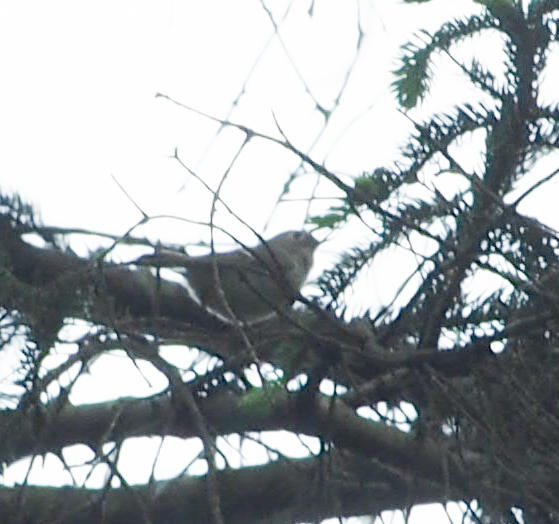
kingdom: Animalia
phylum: Chordata
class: Aves
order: Passeriformes
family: Regulidae
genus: Regulus
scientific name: Regulus calendula
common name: Ruby-crowned kinglet
